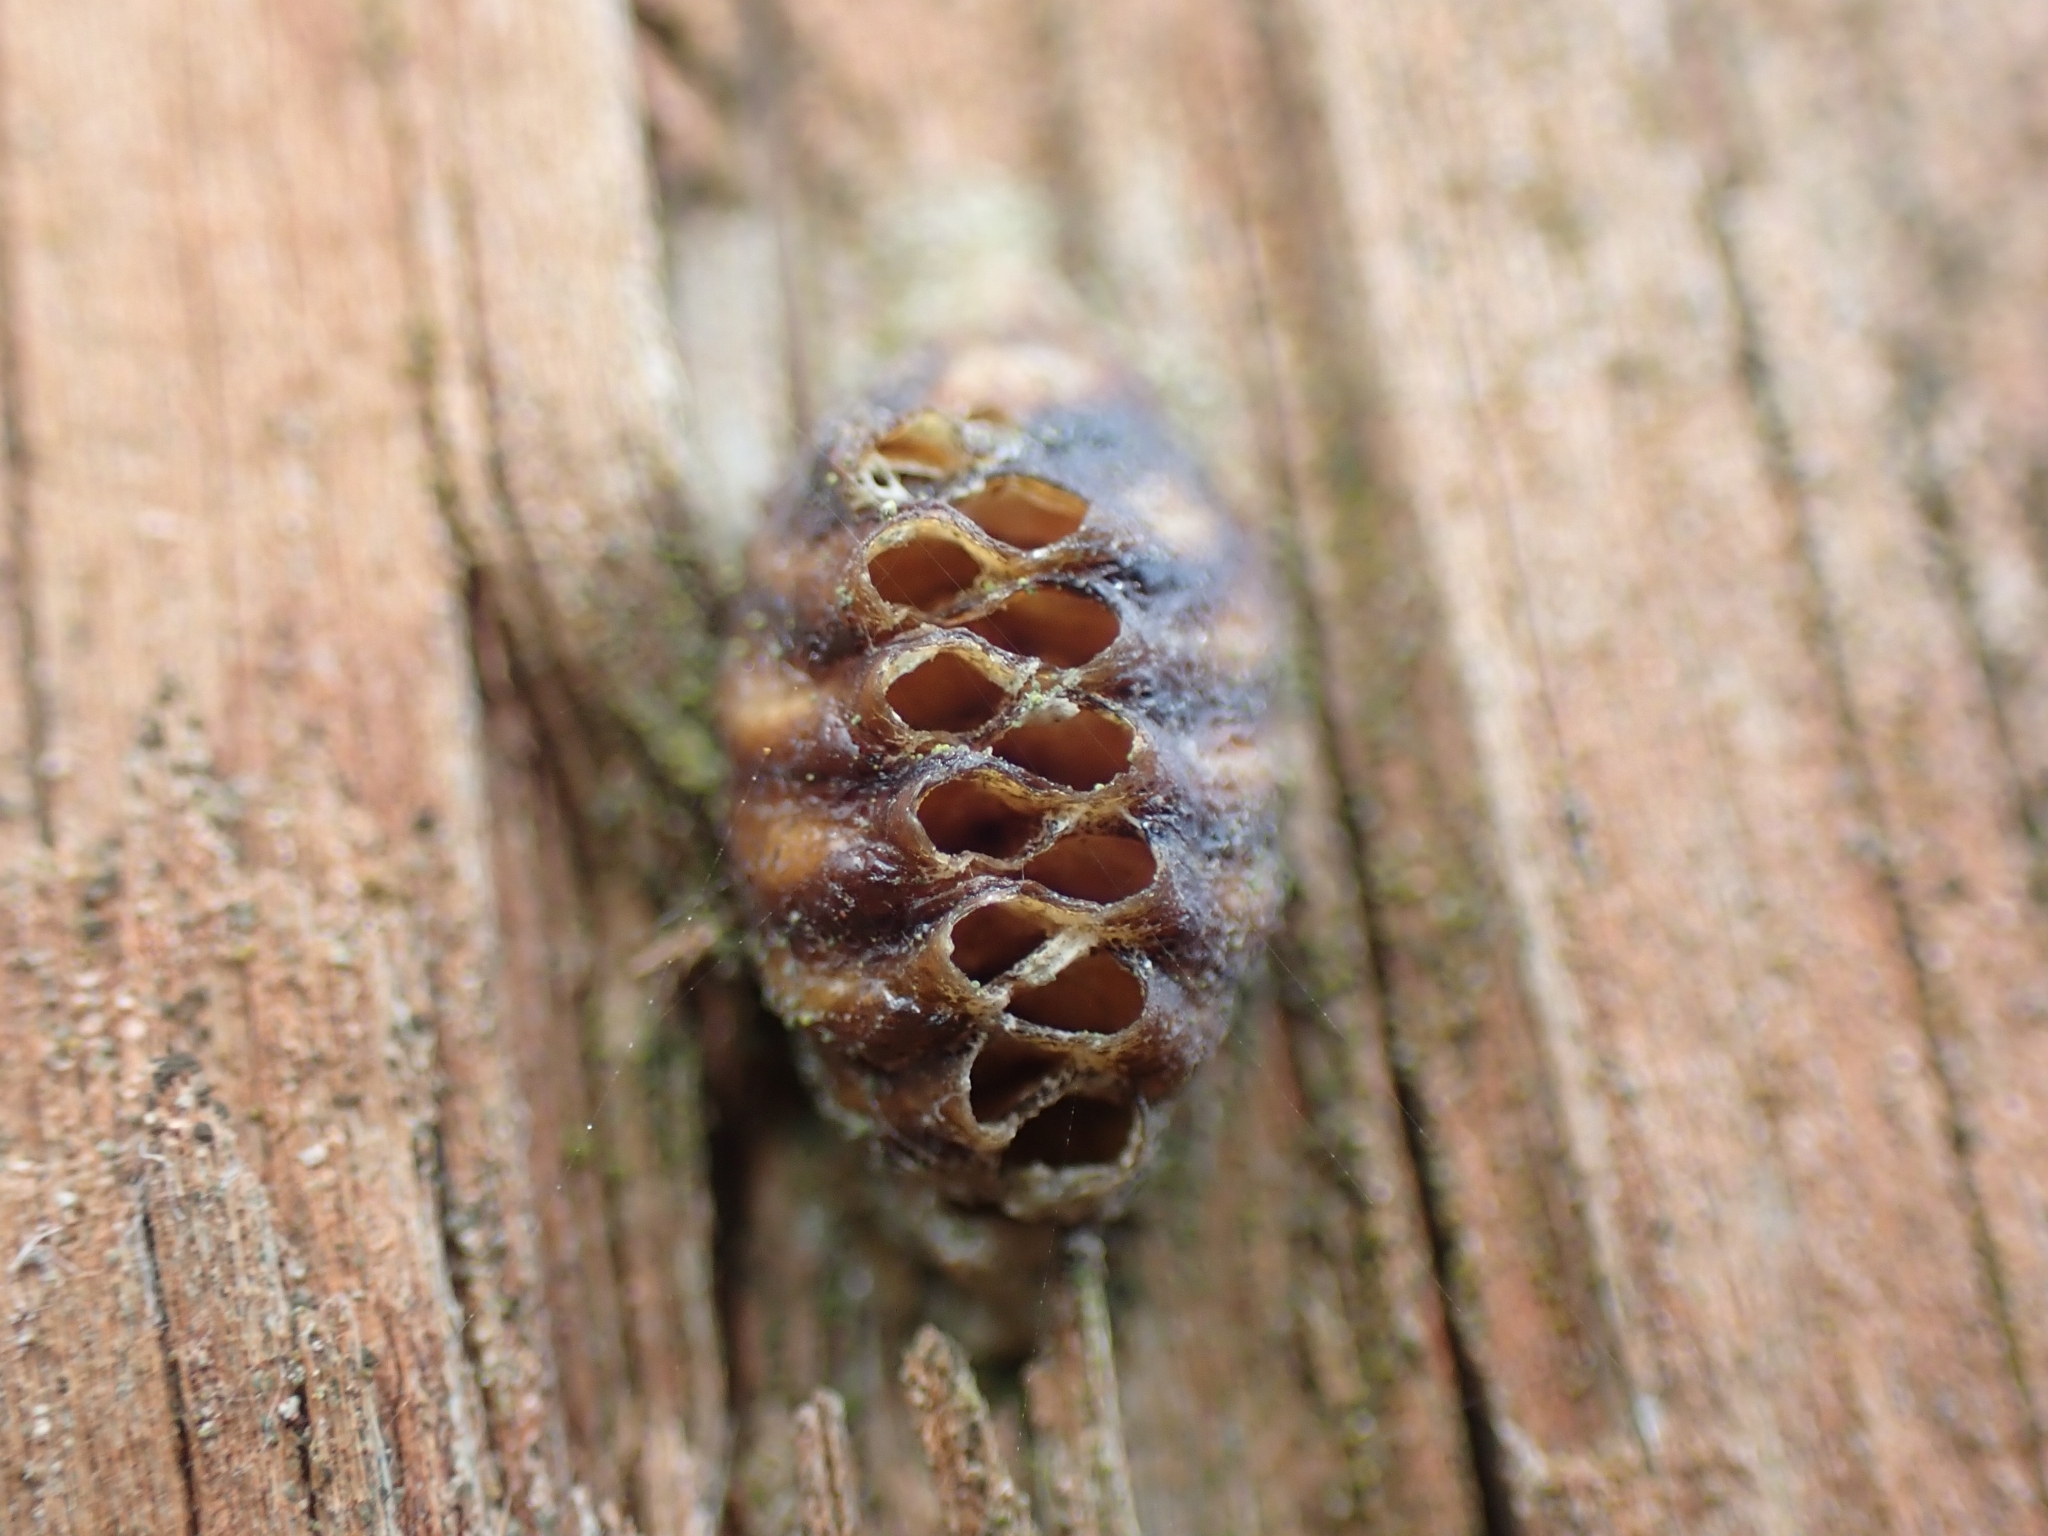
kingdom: Animalia
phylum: Arthropoda
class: Insecta
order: Mantodea
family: Mantidae
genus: Orthodera
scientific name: Orthodera novaezealandiae
